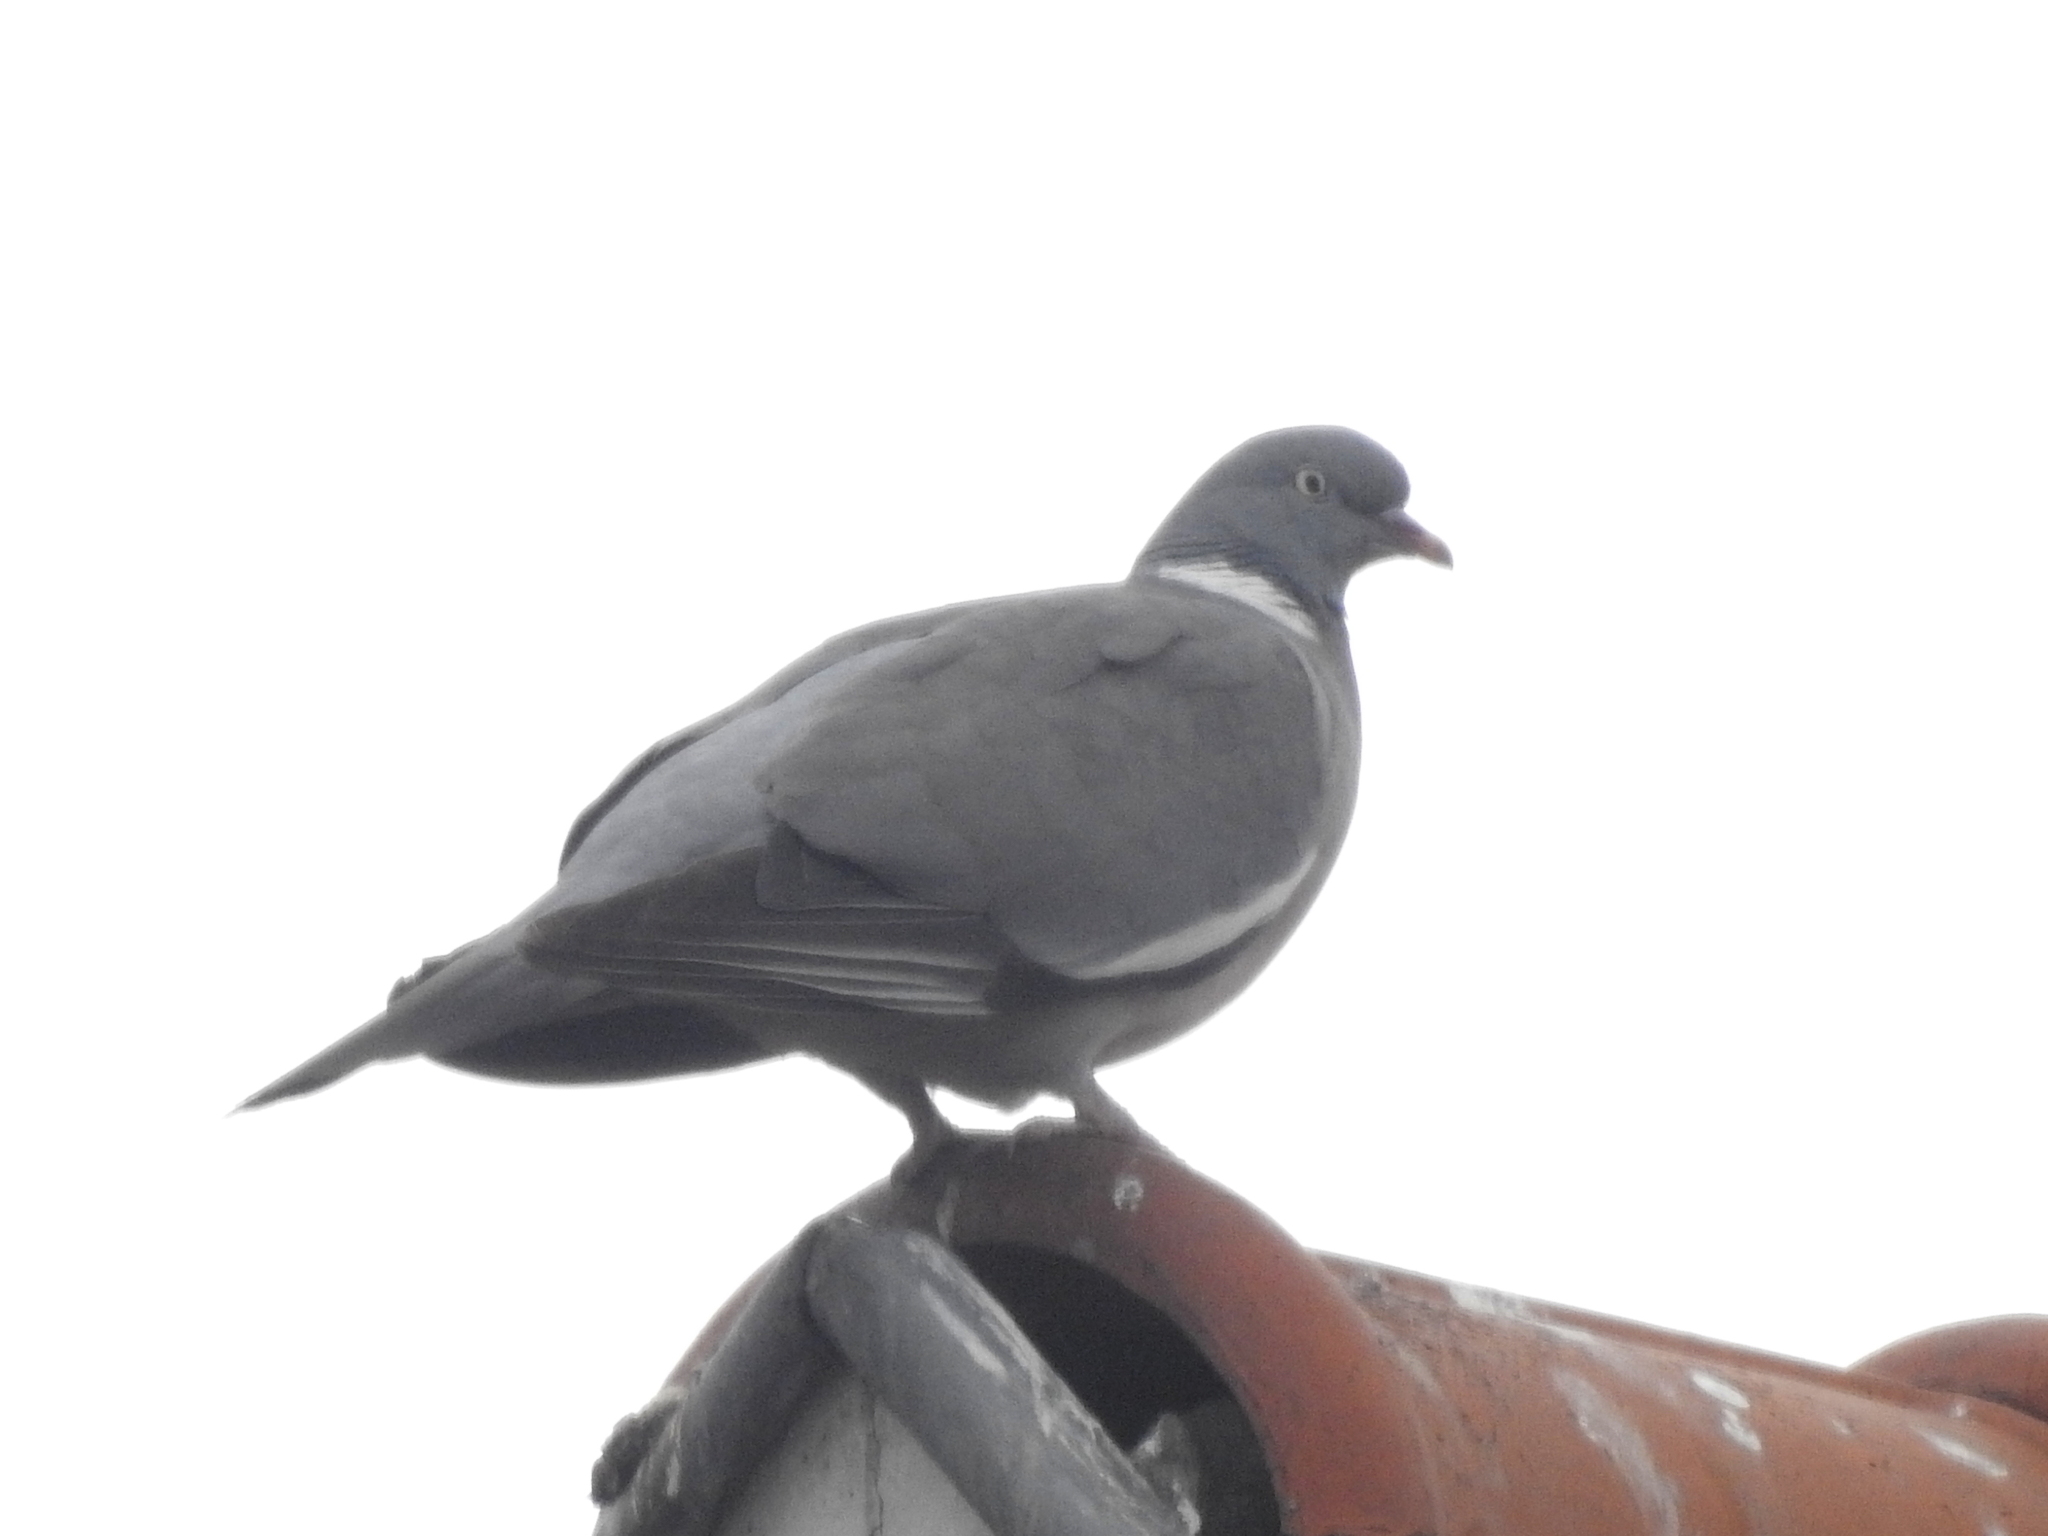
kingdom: Animalia
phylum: Chordata
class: Aves
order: Columbiformes
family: Columbidae
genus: Columba
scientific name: Columba palumbus
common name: Common wood pigeon
